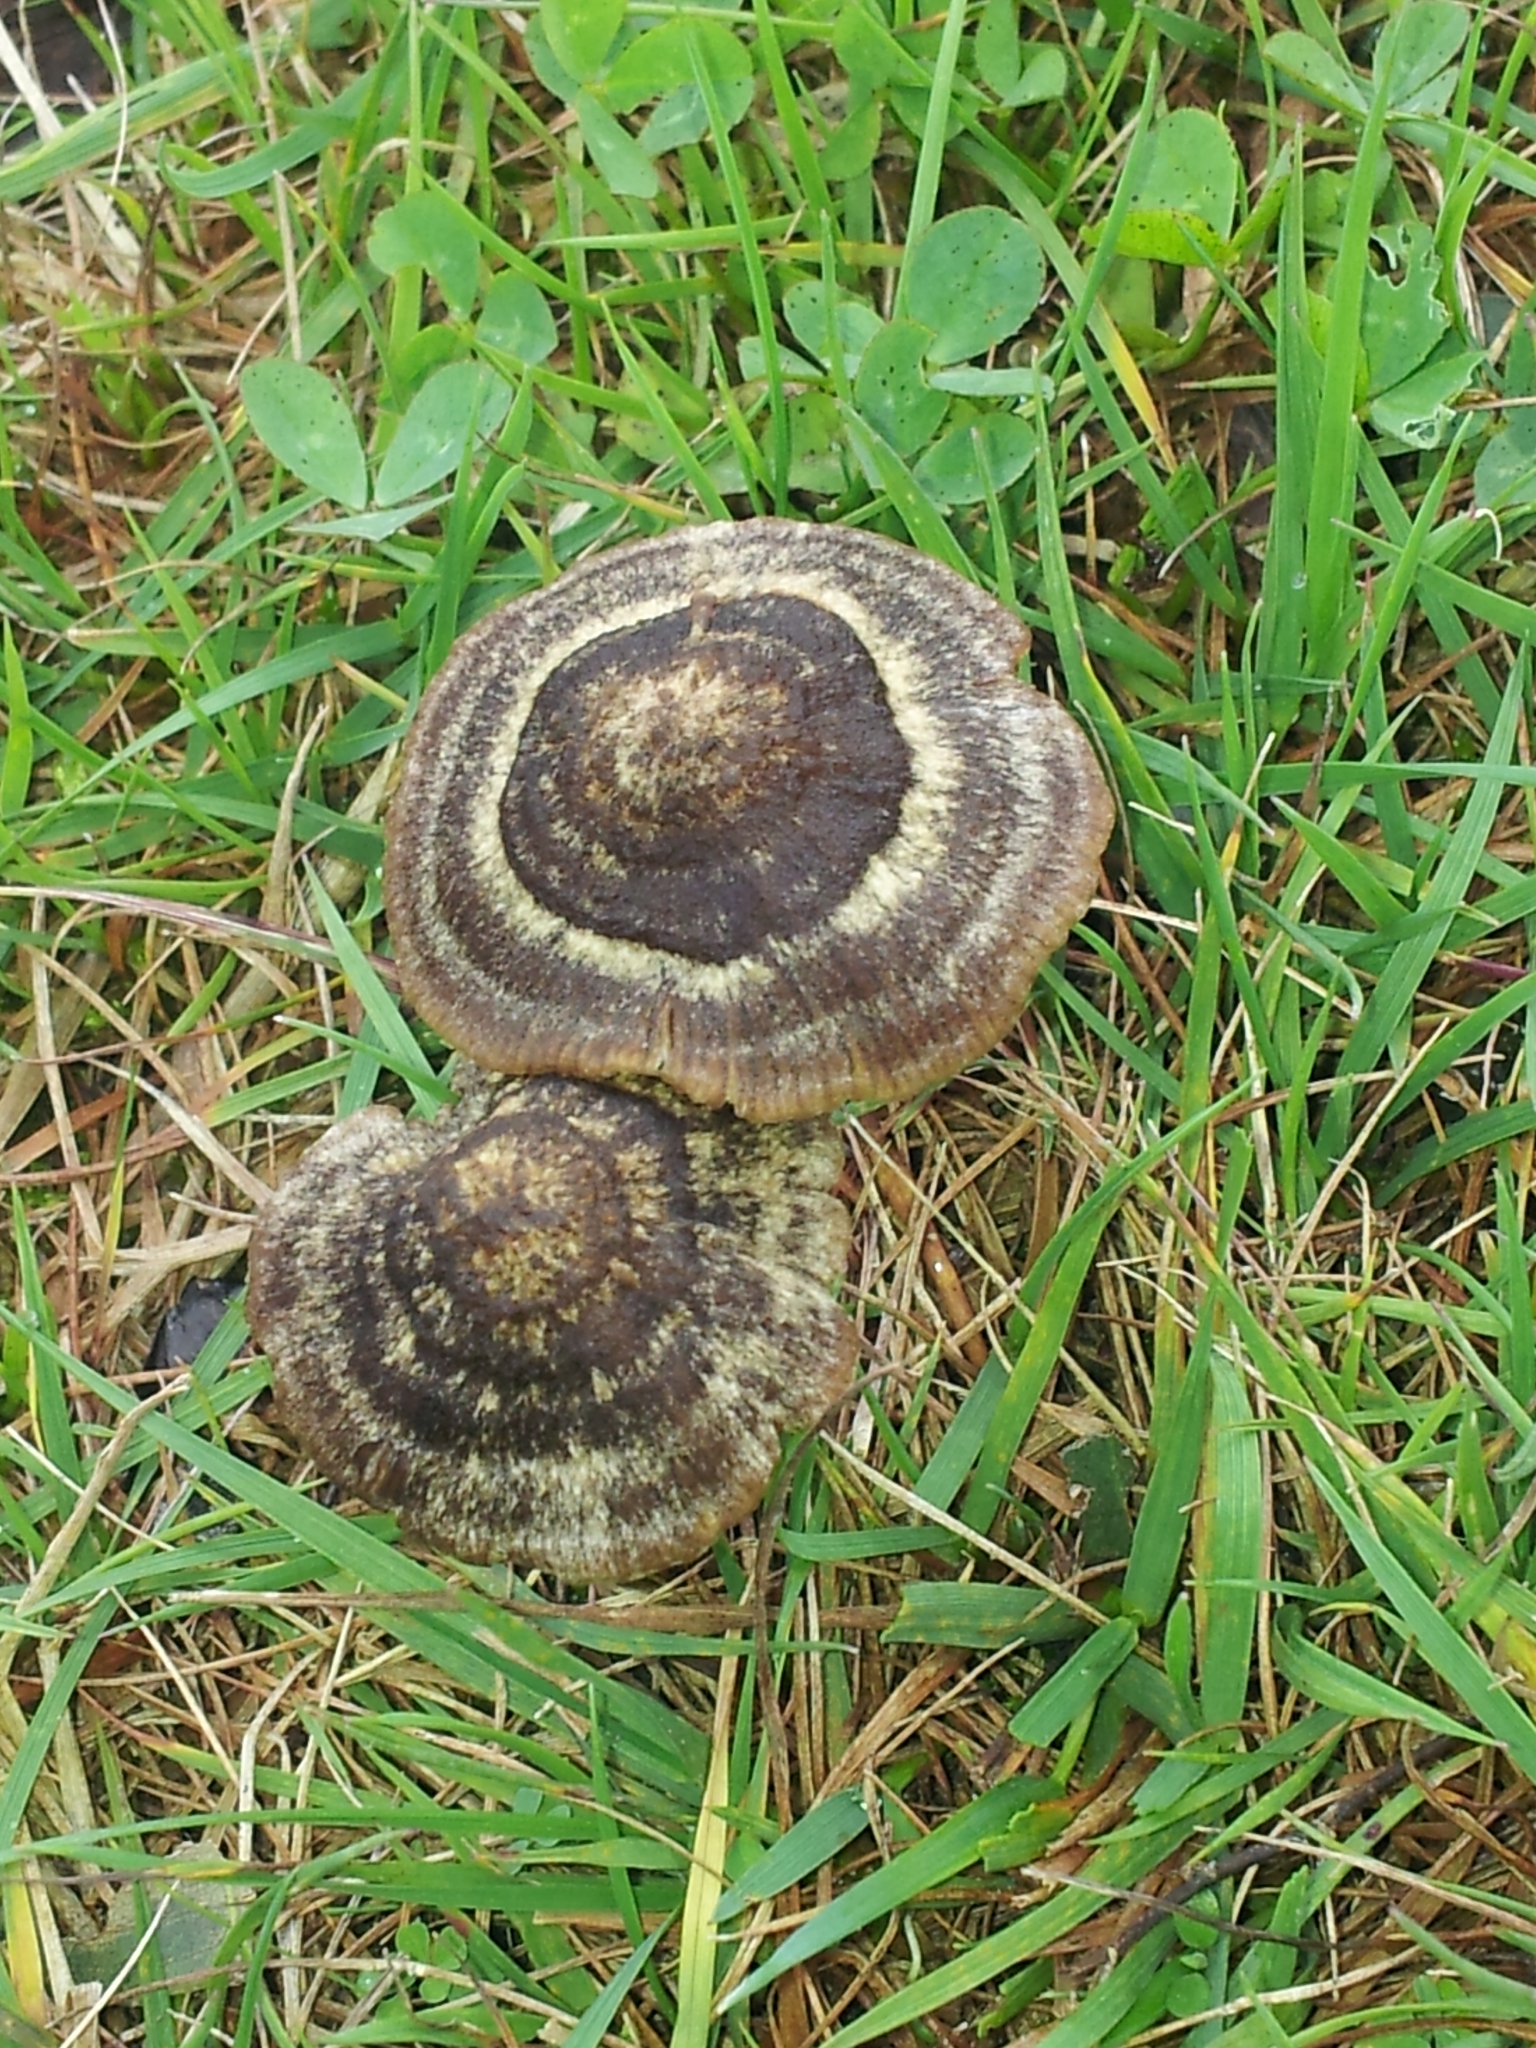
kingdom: Fungi
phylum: Basidiomycota
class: Agaricomycetes
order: Agaricales
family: Entolomataceae
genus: Entoloma
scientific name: Entoloma perzonatum
